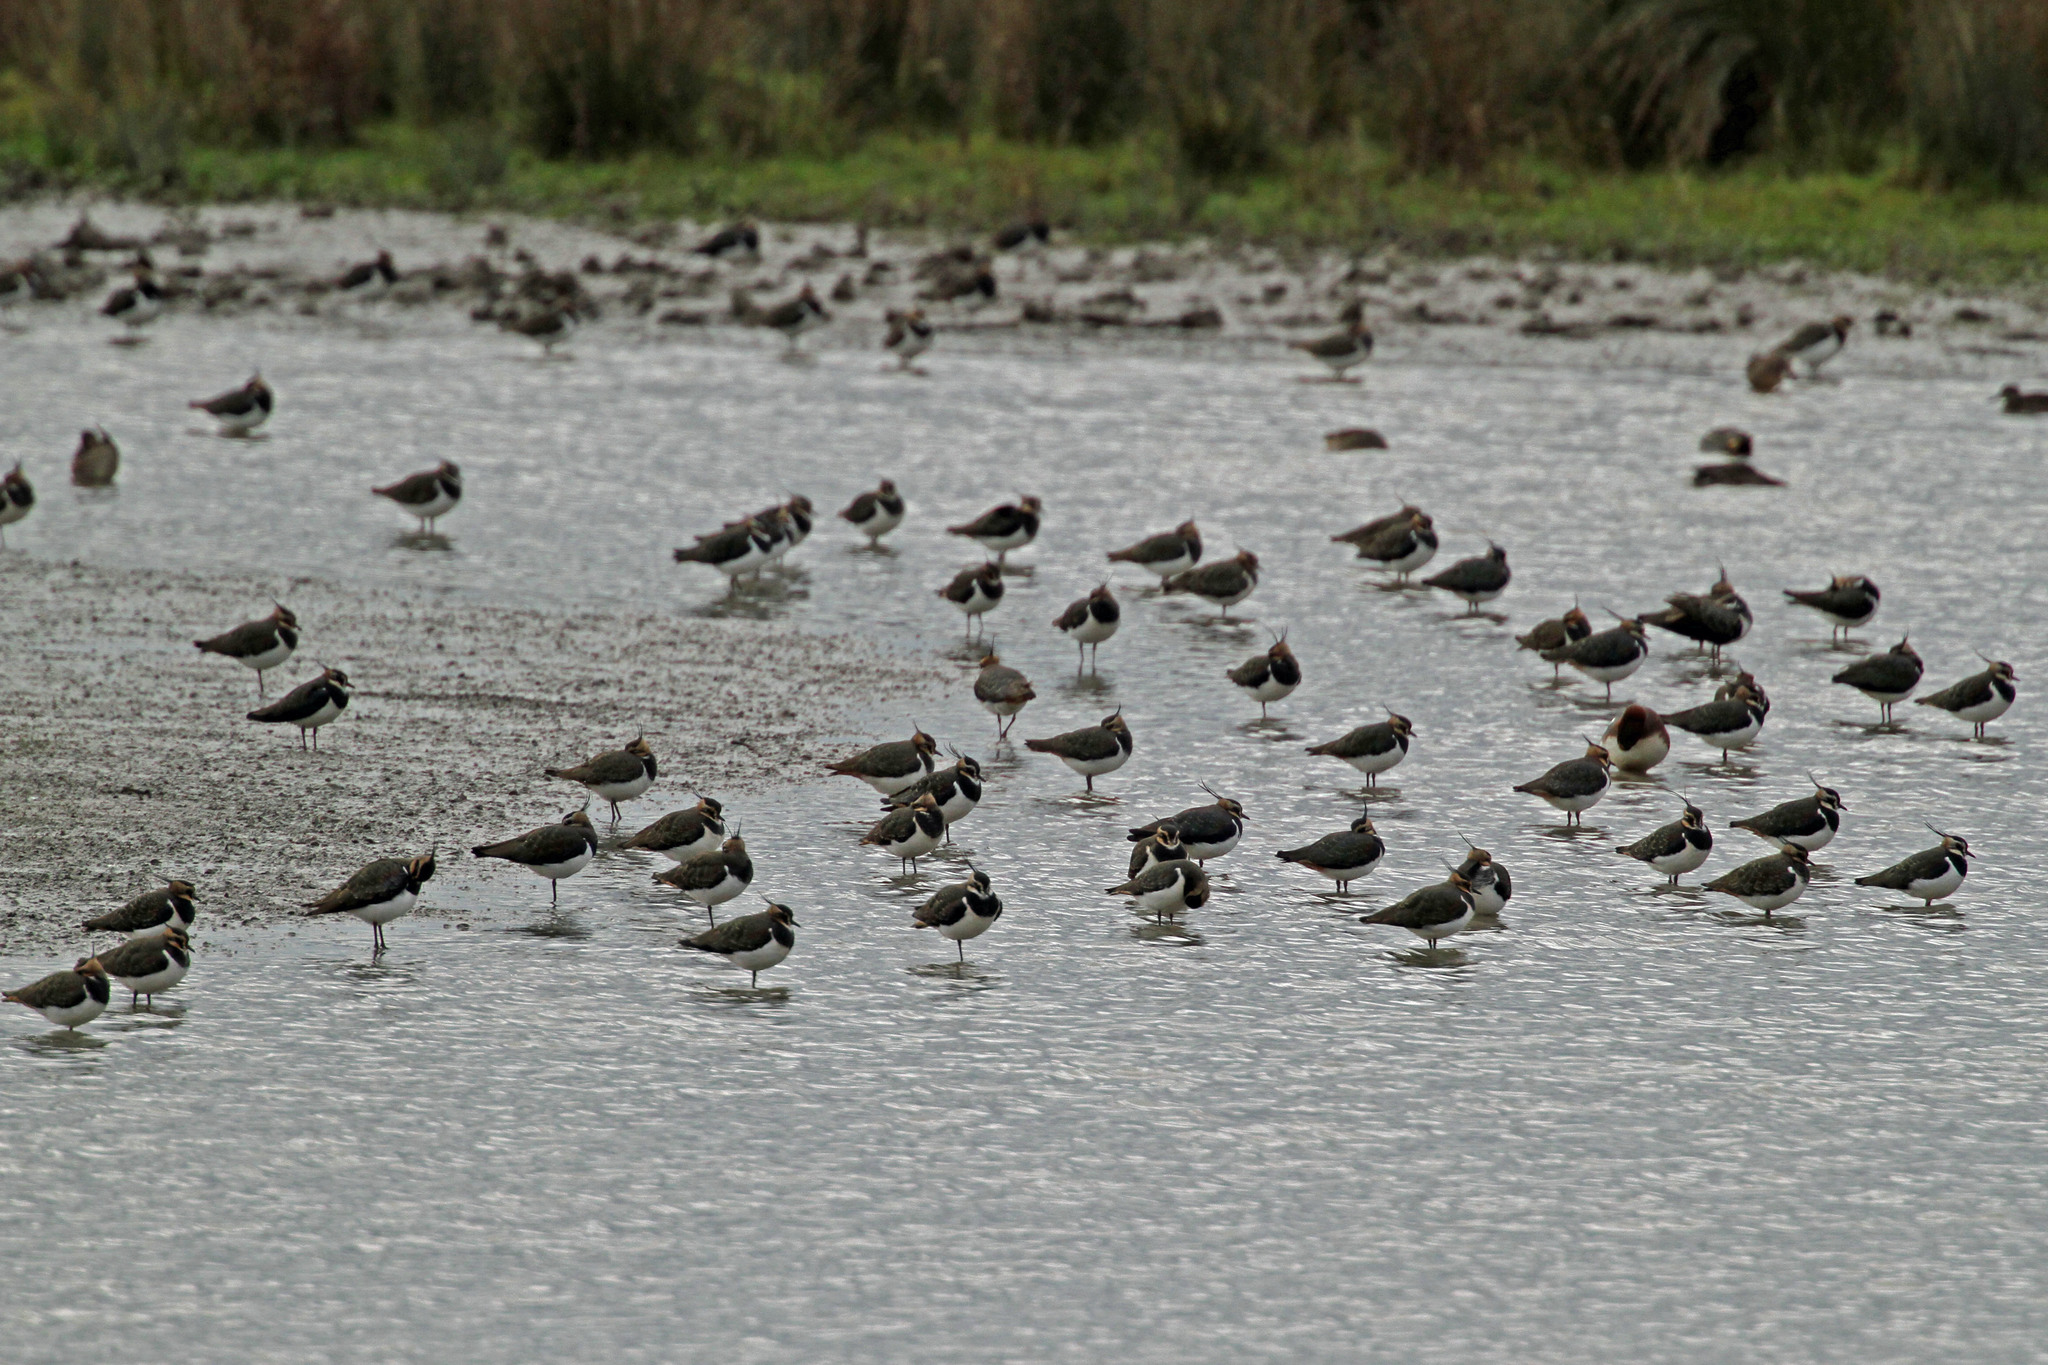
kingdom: Animalia
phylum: Chordata
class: Aves
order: Charadriiformes
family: Charadriidae
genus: Vanellus
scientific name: Vanellus vanellus
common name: Northern lapwing
